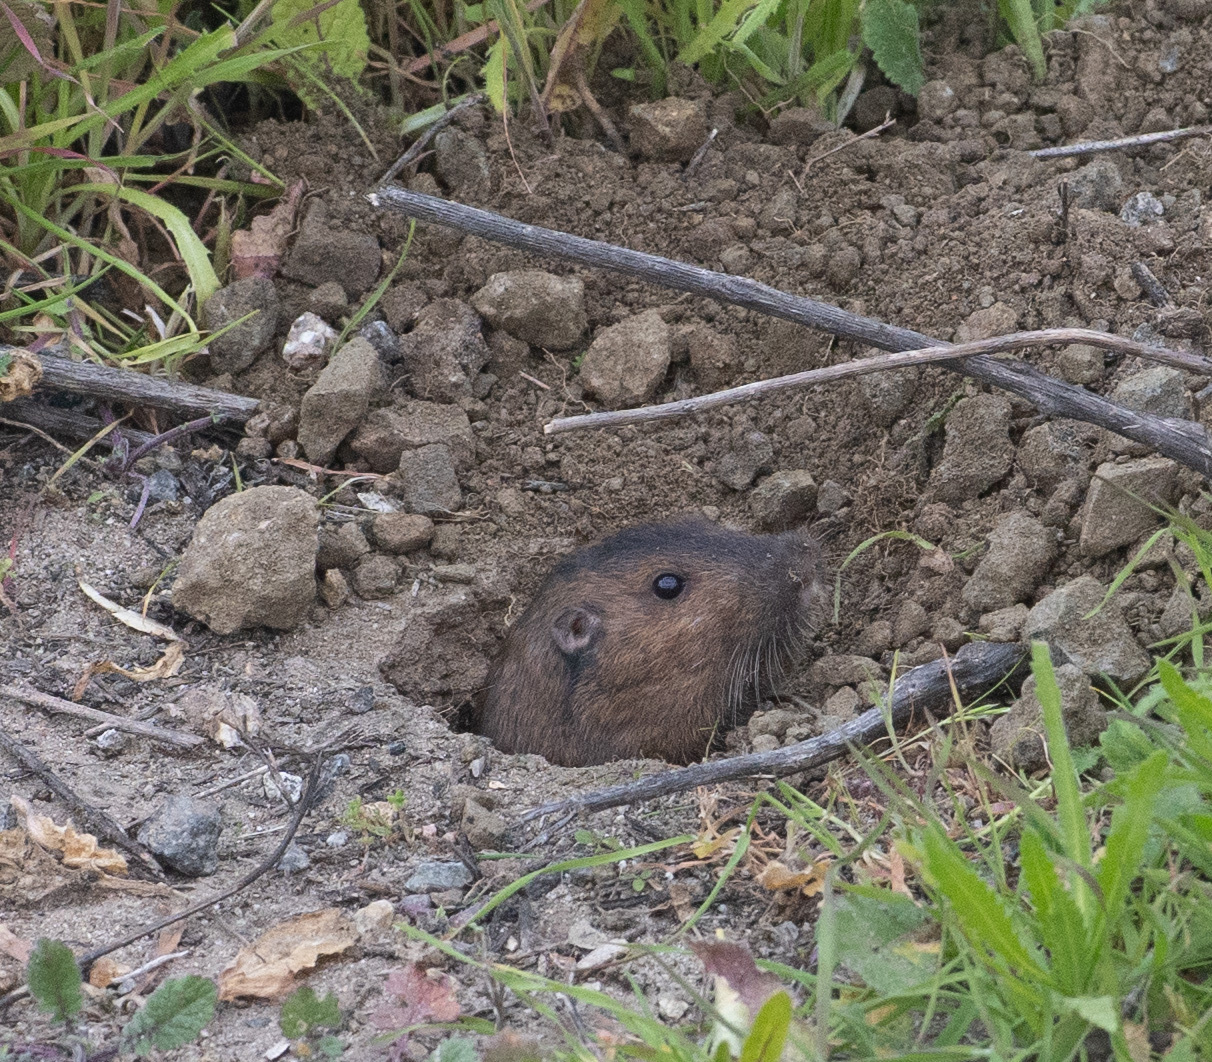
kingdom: Animalia
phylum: Chordata
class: Mammalia
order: Rodentia
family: Geomyidae
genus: Thomomys
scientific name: Thomomys bottae
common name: Botta's pocket gopher
